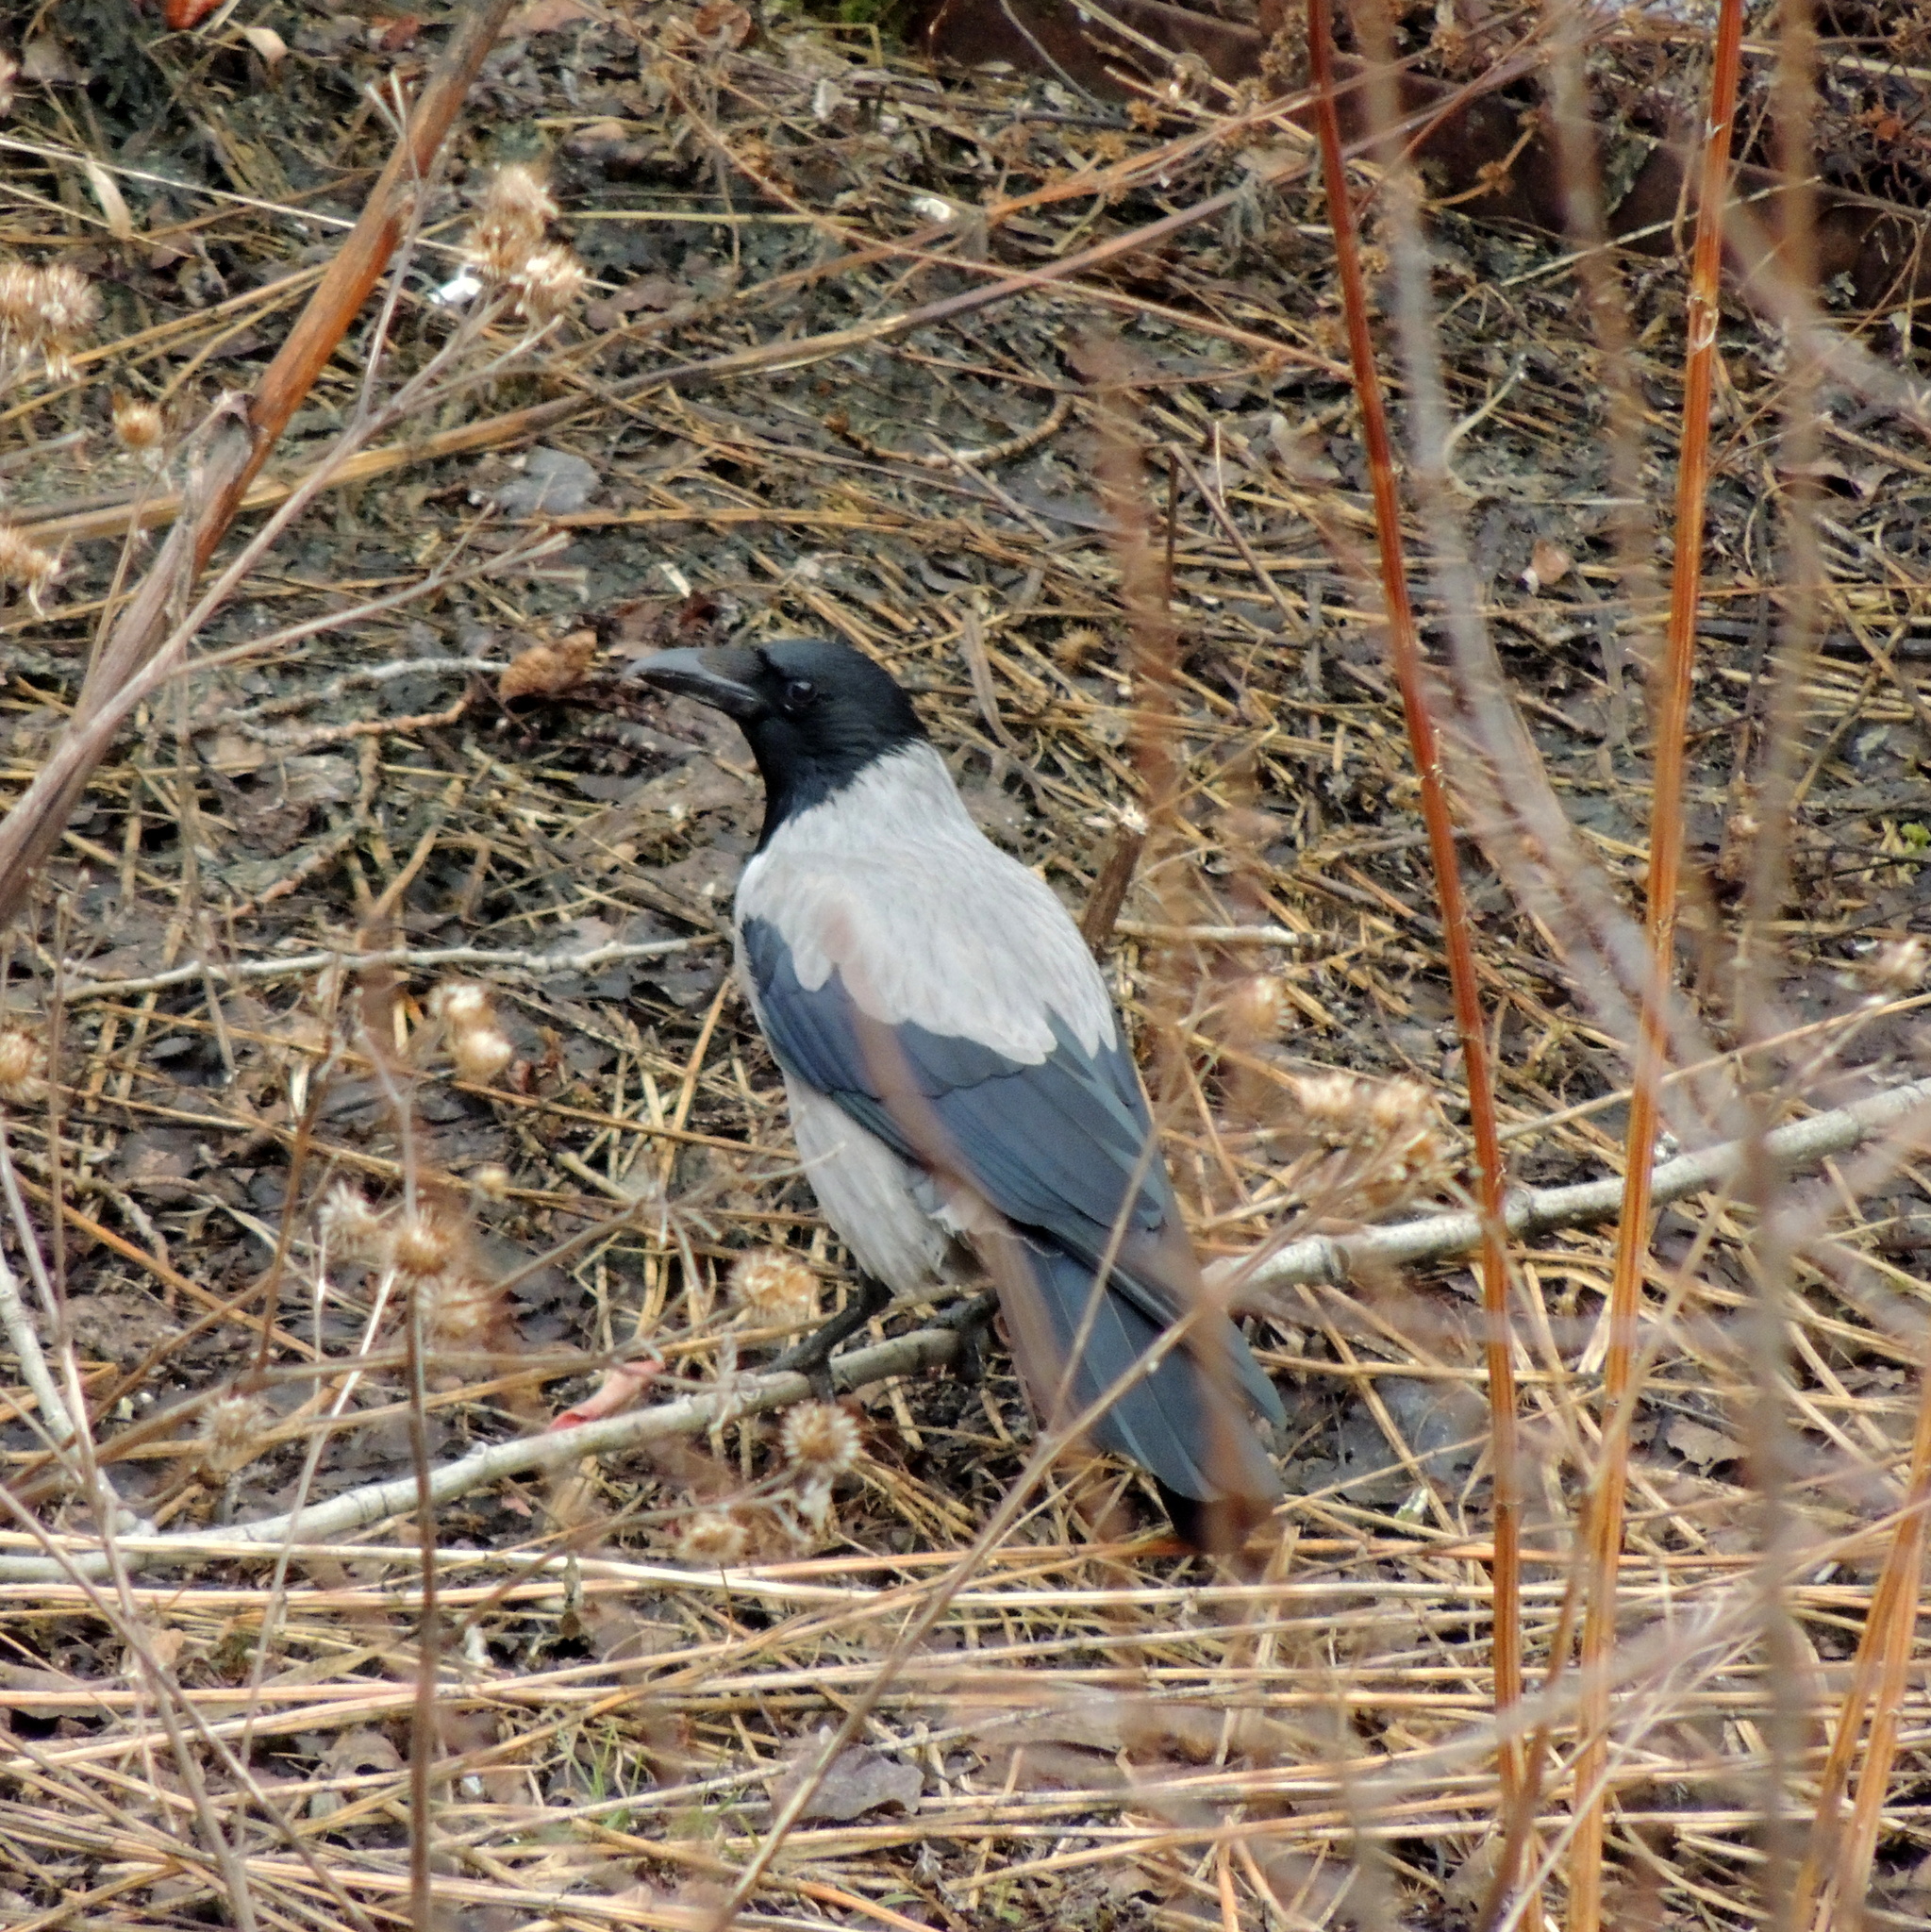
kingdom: Animalia
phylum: Chordata
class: Aves
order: Passeriformes
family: Corvidae
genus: Corvus
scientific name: Corvus cornix
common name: Hooded crow
